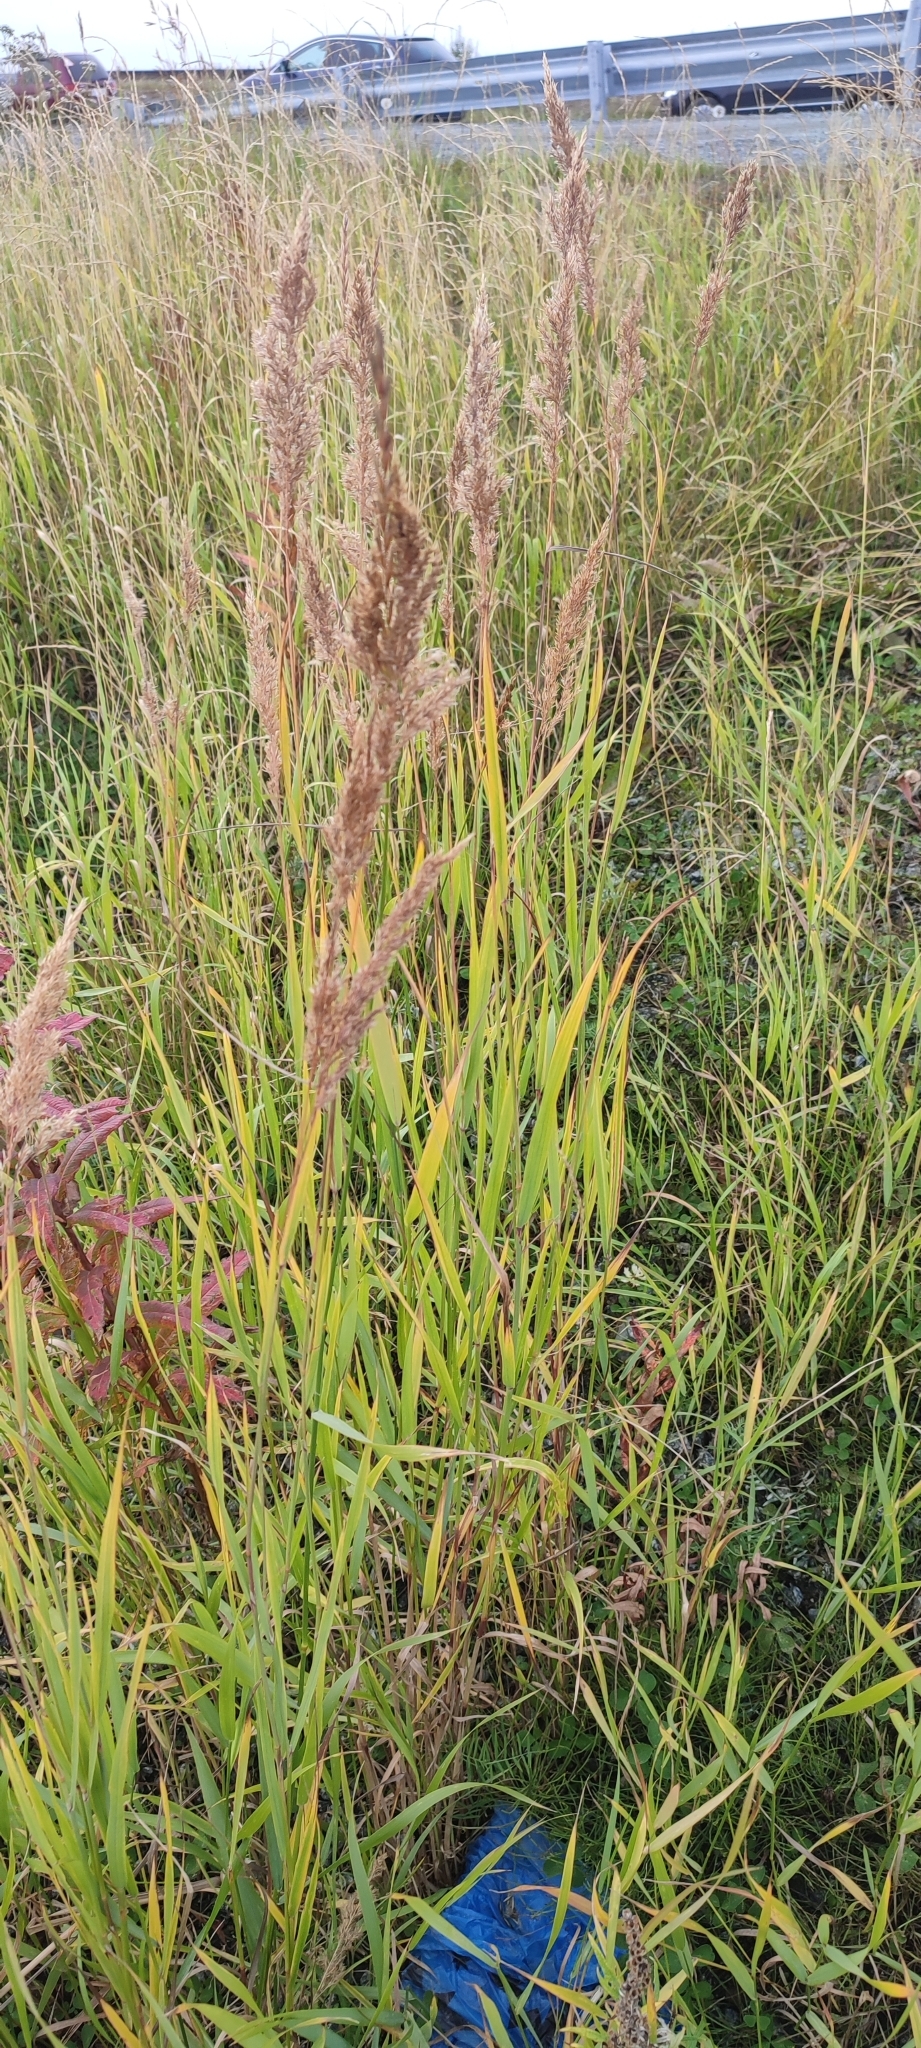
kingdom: Plantae
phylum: Tracheophyta
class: Liliopsida
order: Poales
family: Poaceae
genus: Calamagrostis
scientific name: Calamagrostis purpurea
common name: Scandinavian small-reed
